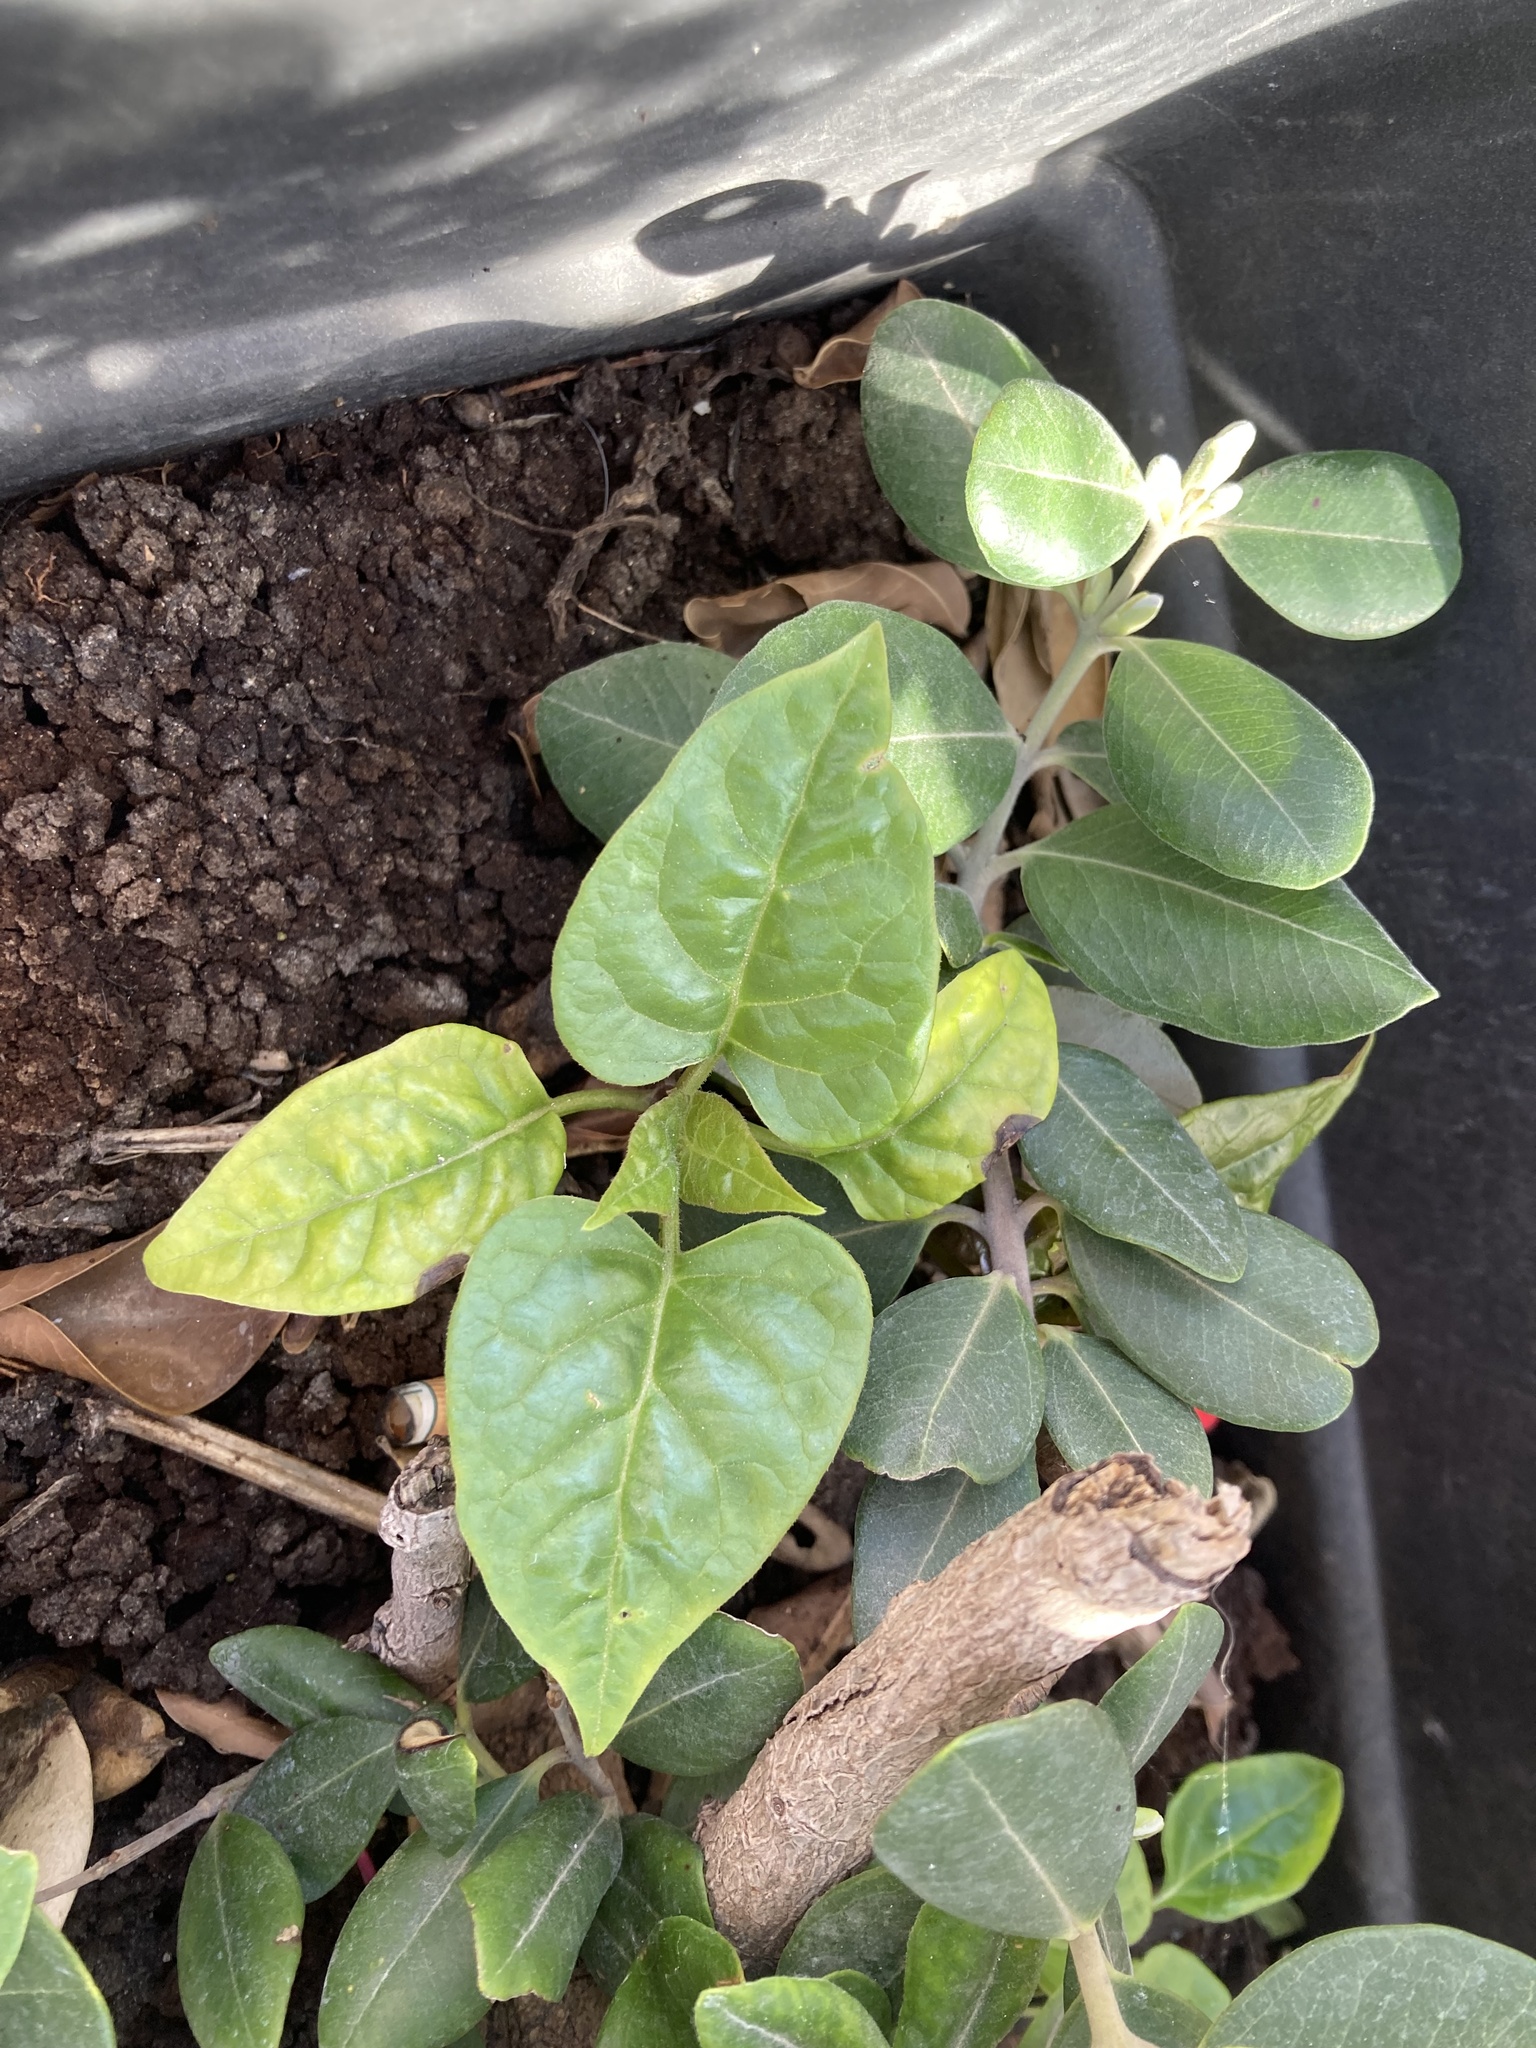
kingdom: Plantae
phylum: Tracheophyta
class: Magnoliopsida
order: Caryophyllales
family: Nyctaginaceae
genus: Mirabilis
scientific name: Mirabilis jalapa
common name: Marvel-of-peru
